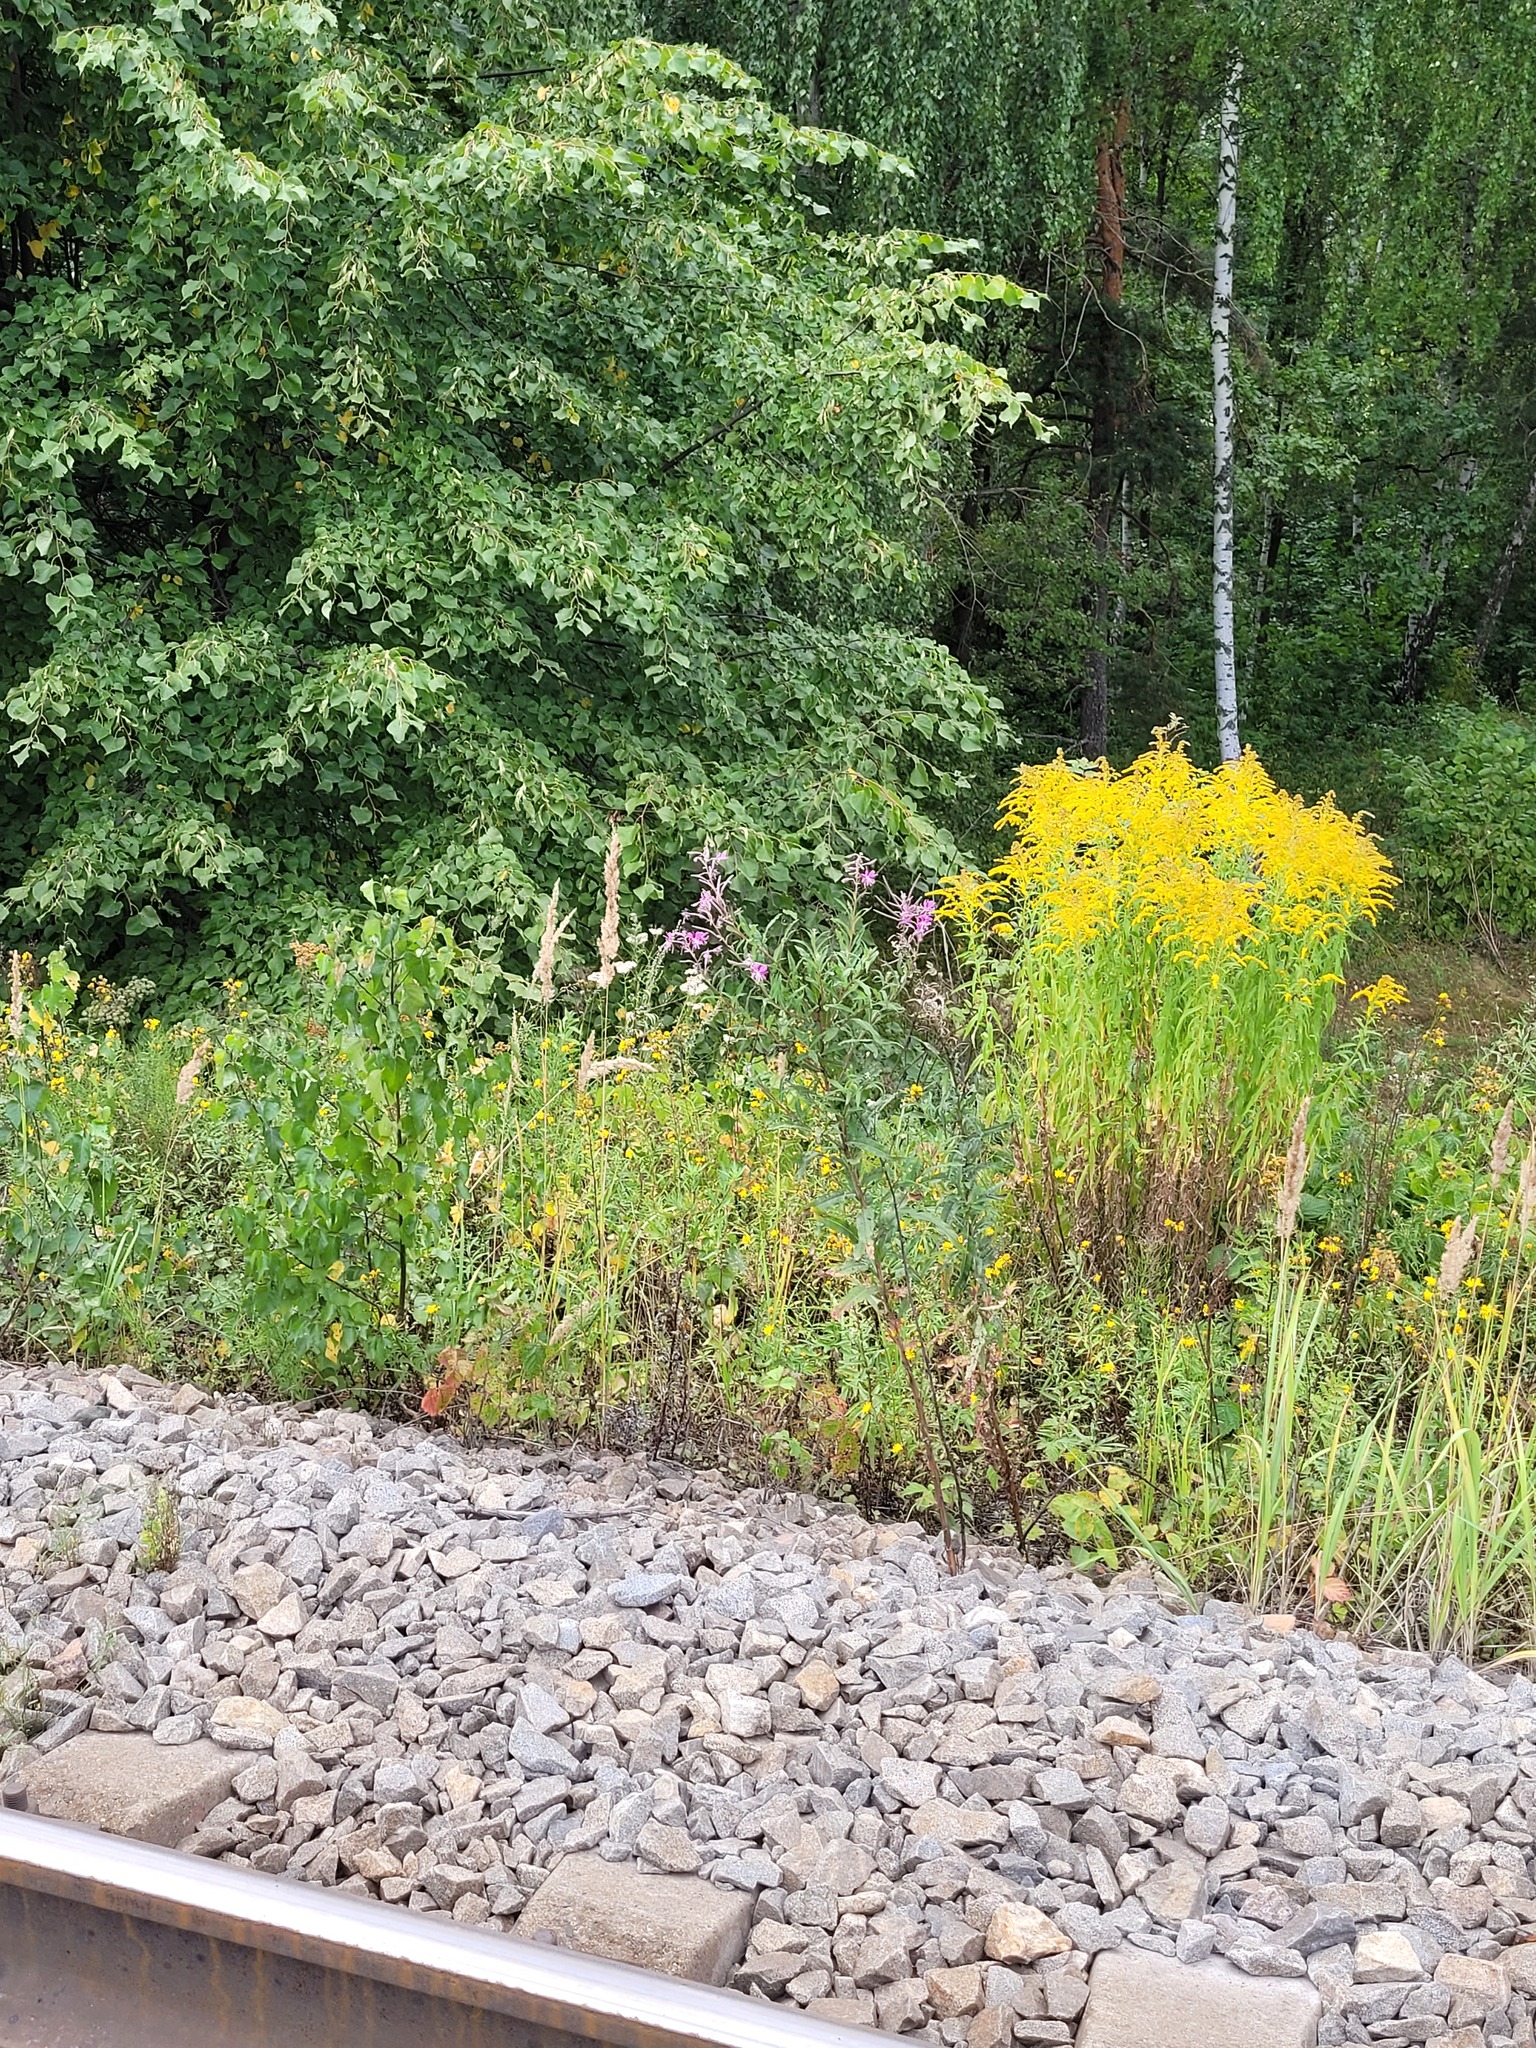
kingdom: Plantae
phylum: Tracheophyta
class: Magnoliopsida
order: Asterales
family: Asteraceae
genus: Solidago
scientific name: Solidago canadensis
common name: Canada goldenrod
